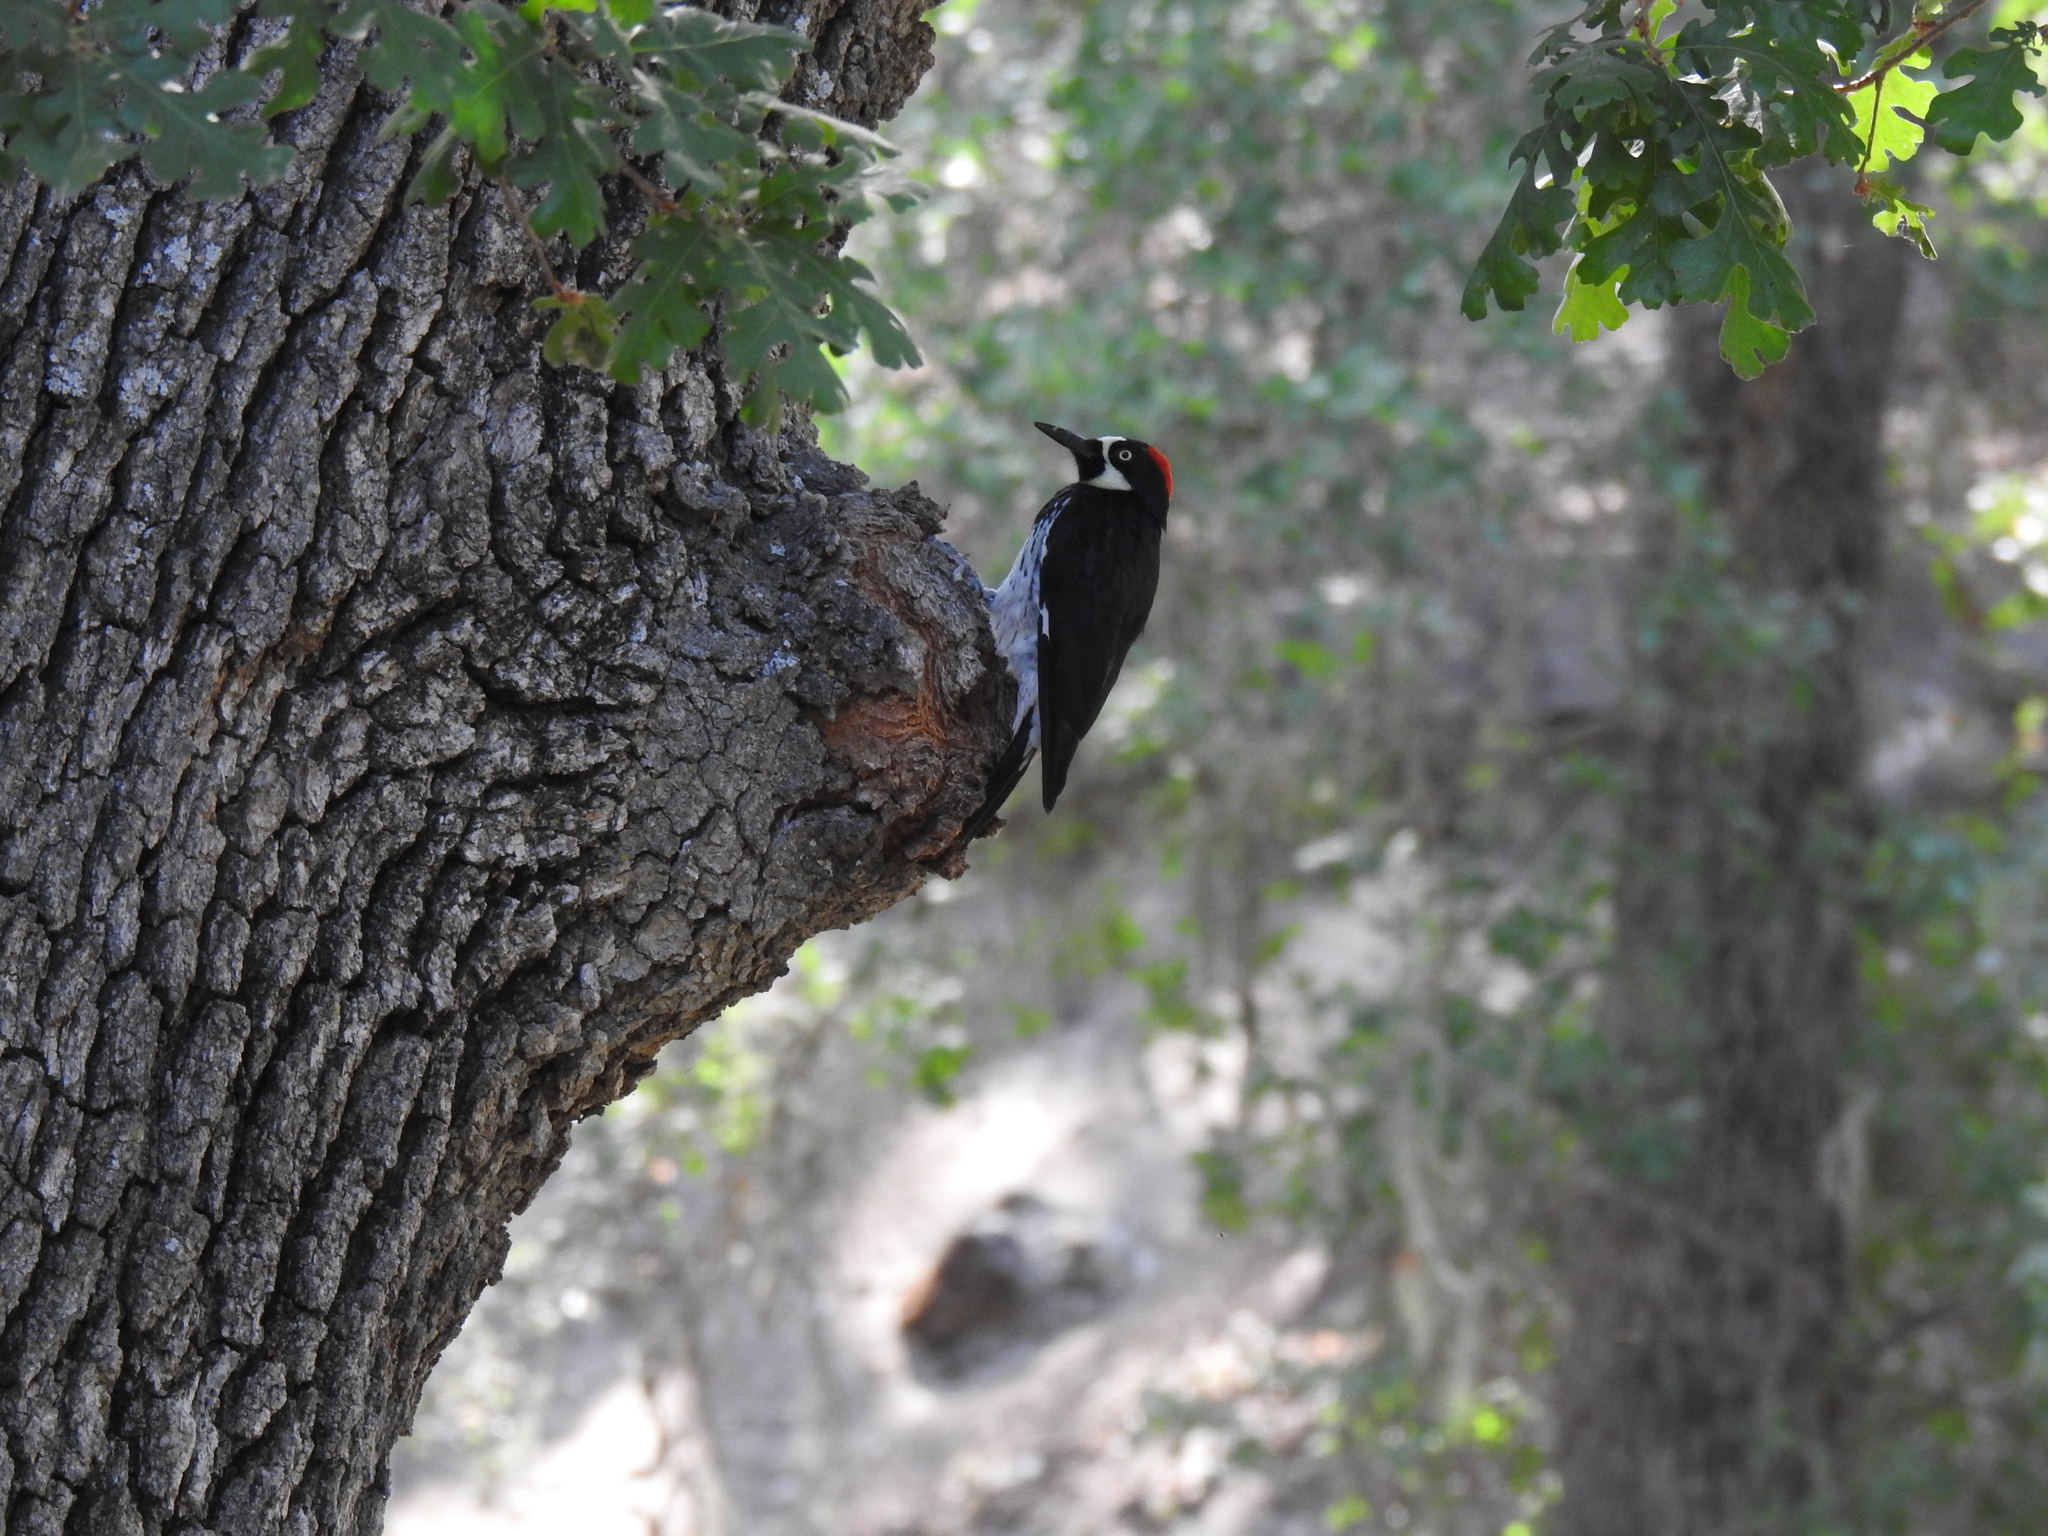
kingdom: Animalia
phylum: Chordata
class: Aves
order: Piciformes
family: Picidae
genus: Melanerpes
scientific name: Melanerpes formicivorus
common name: Acorn woodpecker
